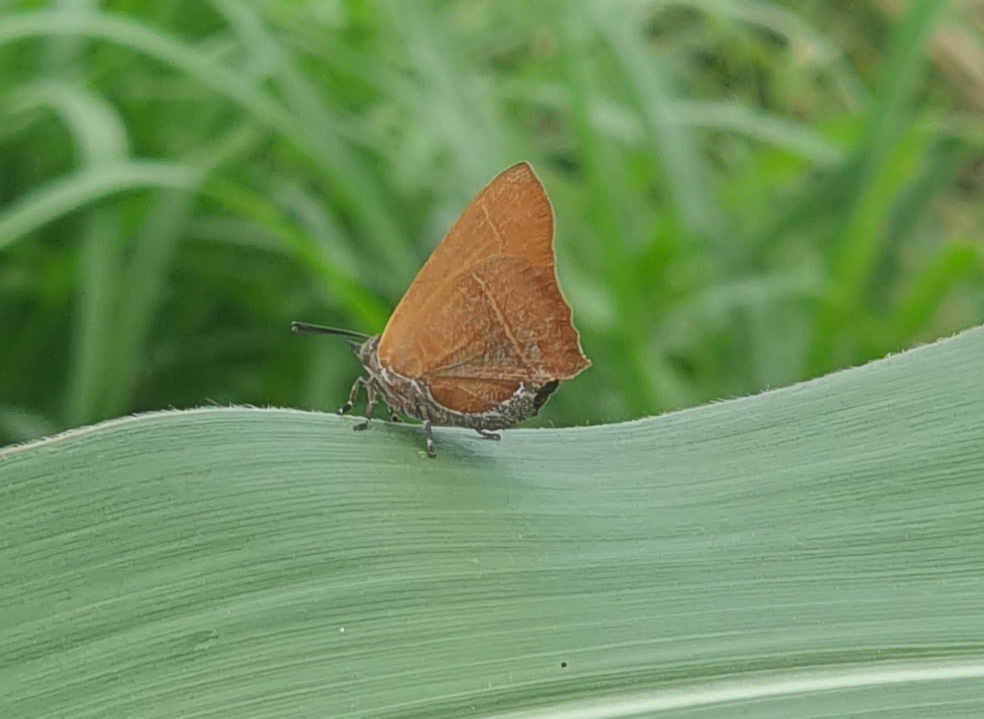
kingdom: Animalia
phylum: Arthropoda
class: Insecta
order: Lepidoptera
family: Lycaenidae
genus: Myrina
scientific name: Myrina silenus
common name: Amber fig-tree blue
